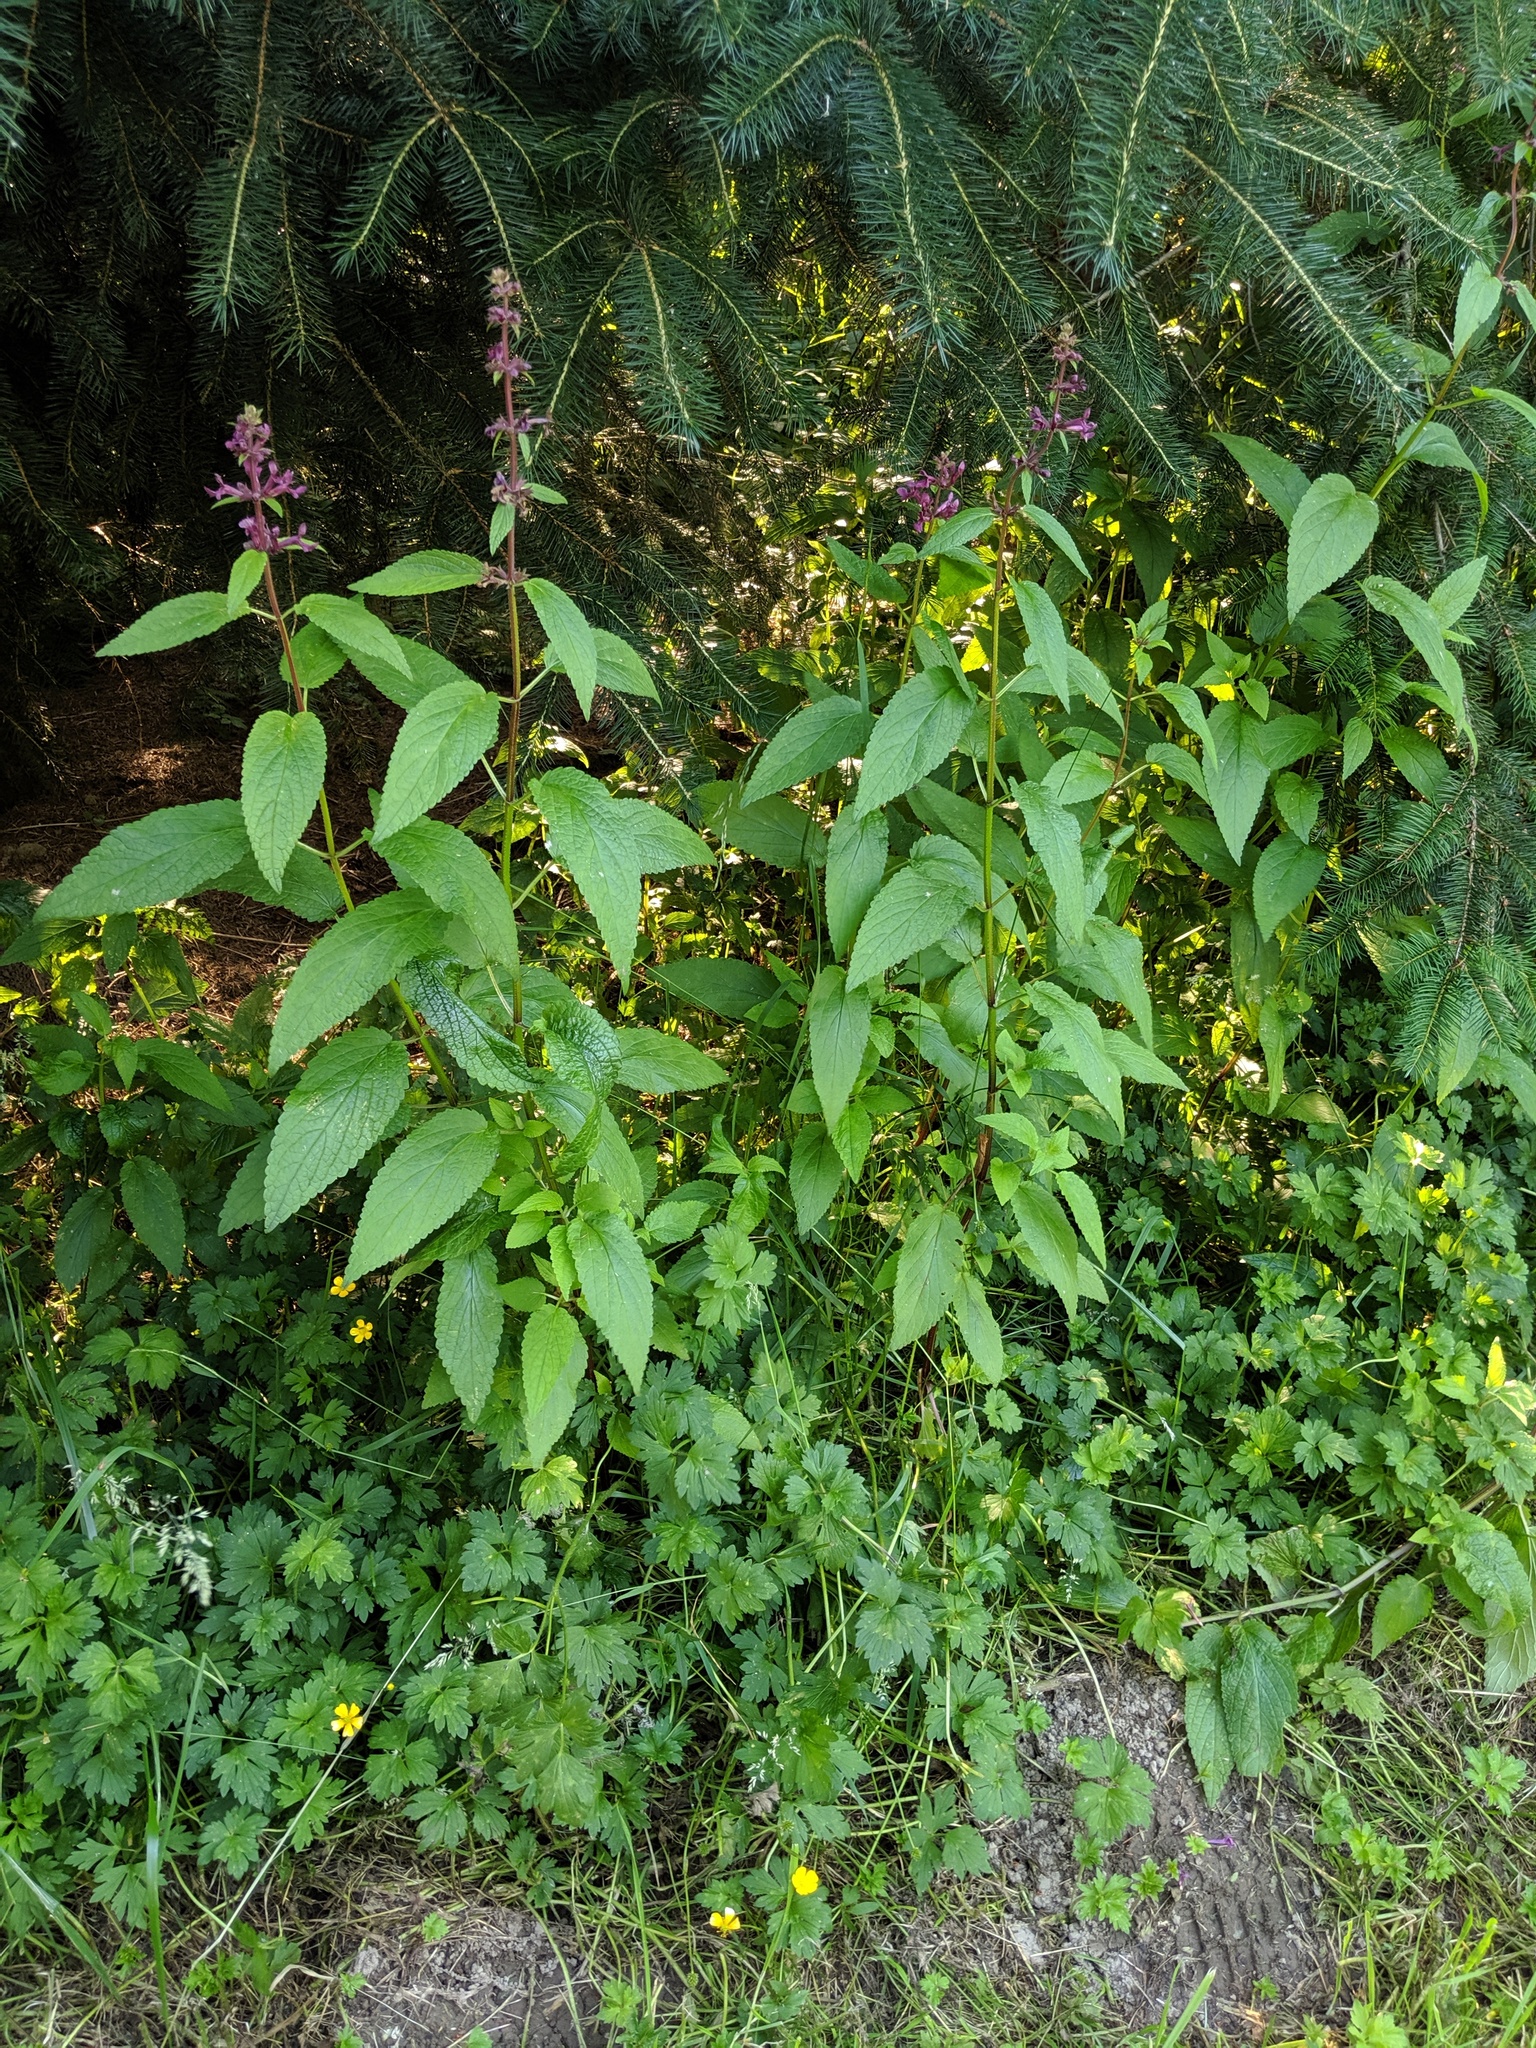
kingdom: Plantae
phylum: Tracheophyta
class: Magnoliopsida
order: Lamiales
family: Lamiaceae
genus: Stachys
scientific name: Stachys chamissonis
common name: Coastal hedge-nettle
